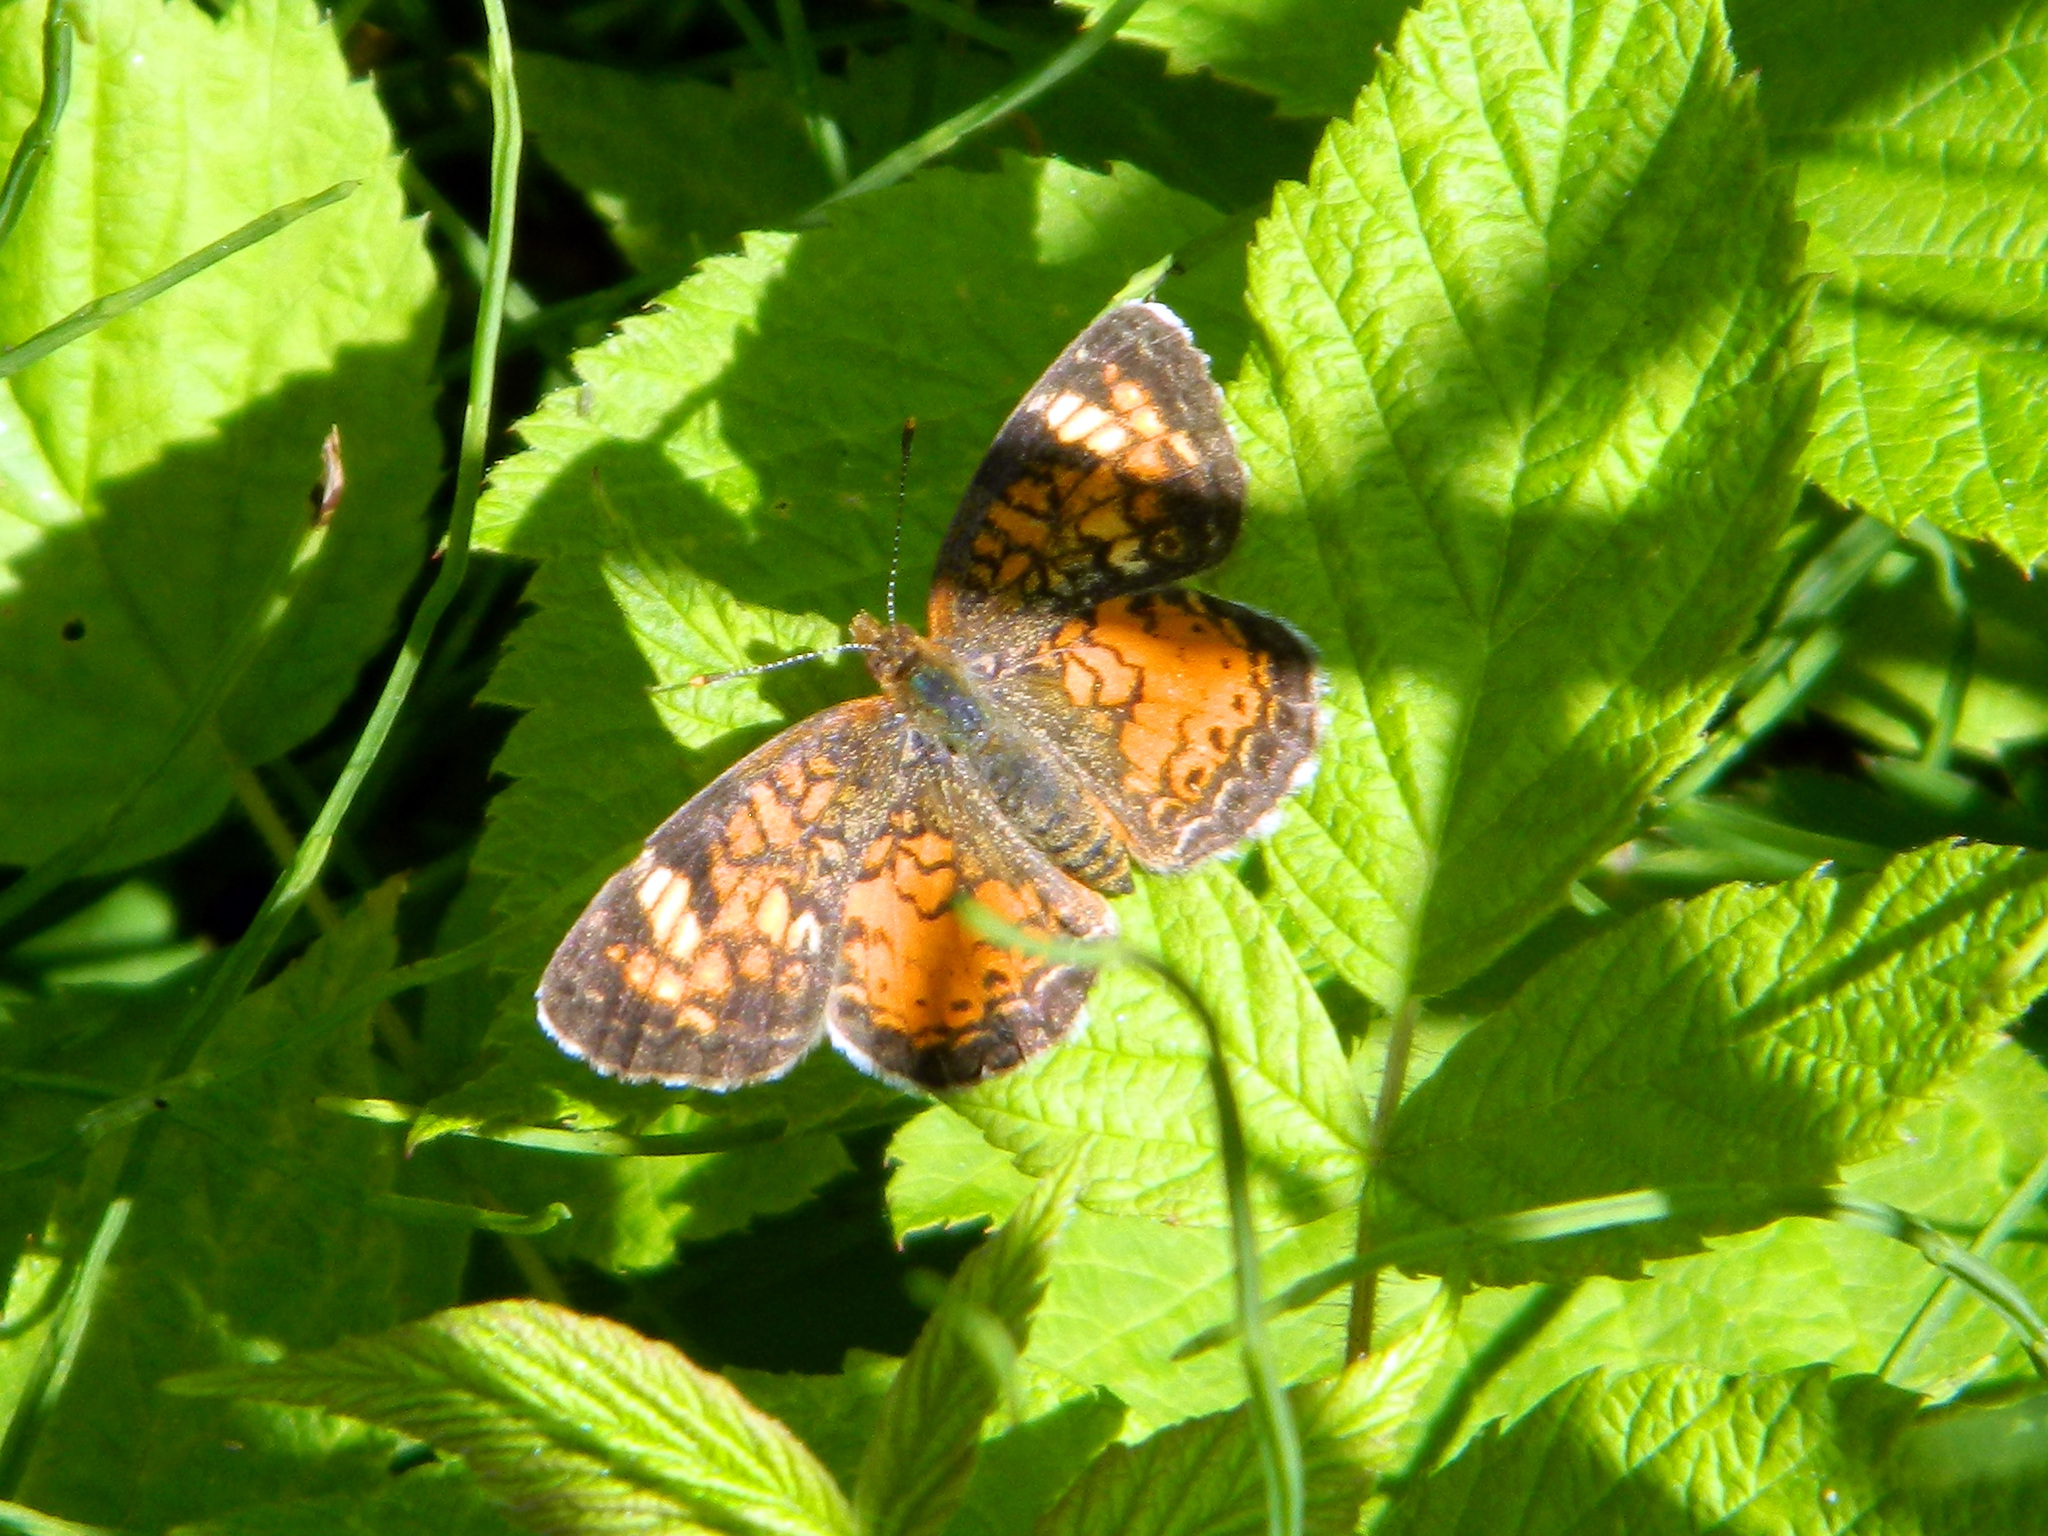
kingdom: Animalia
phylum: Arthropoda
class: Insecta
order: Lepidoptera
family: Nymphalidae
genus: Phyciodes
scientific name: Phyciodes tharos
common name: Pearl crescent
